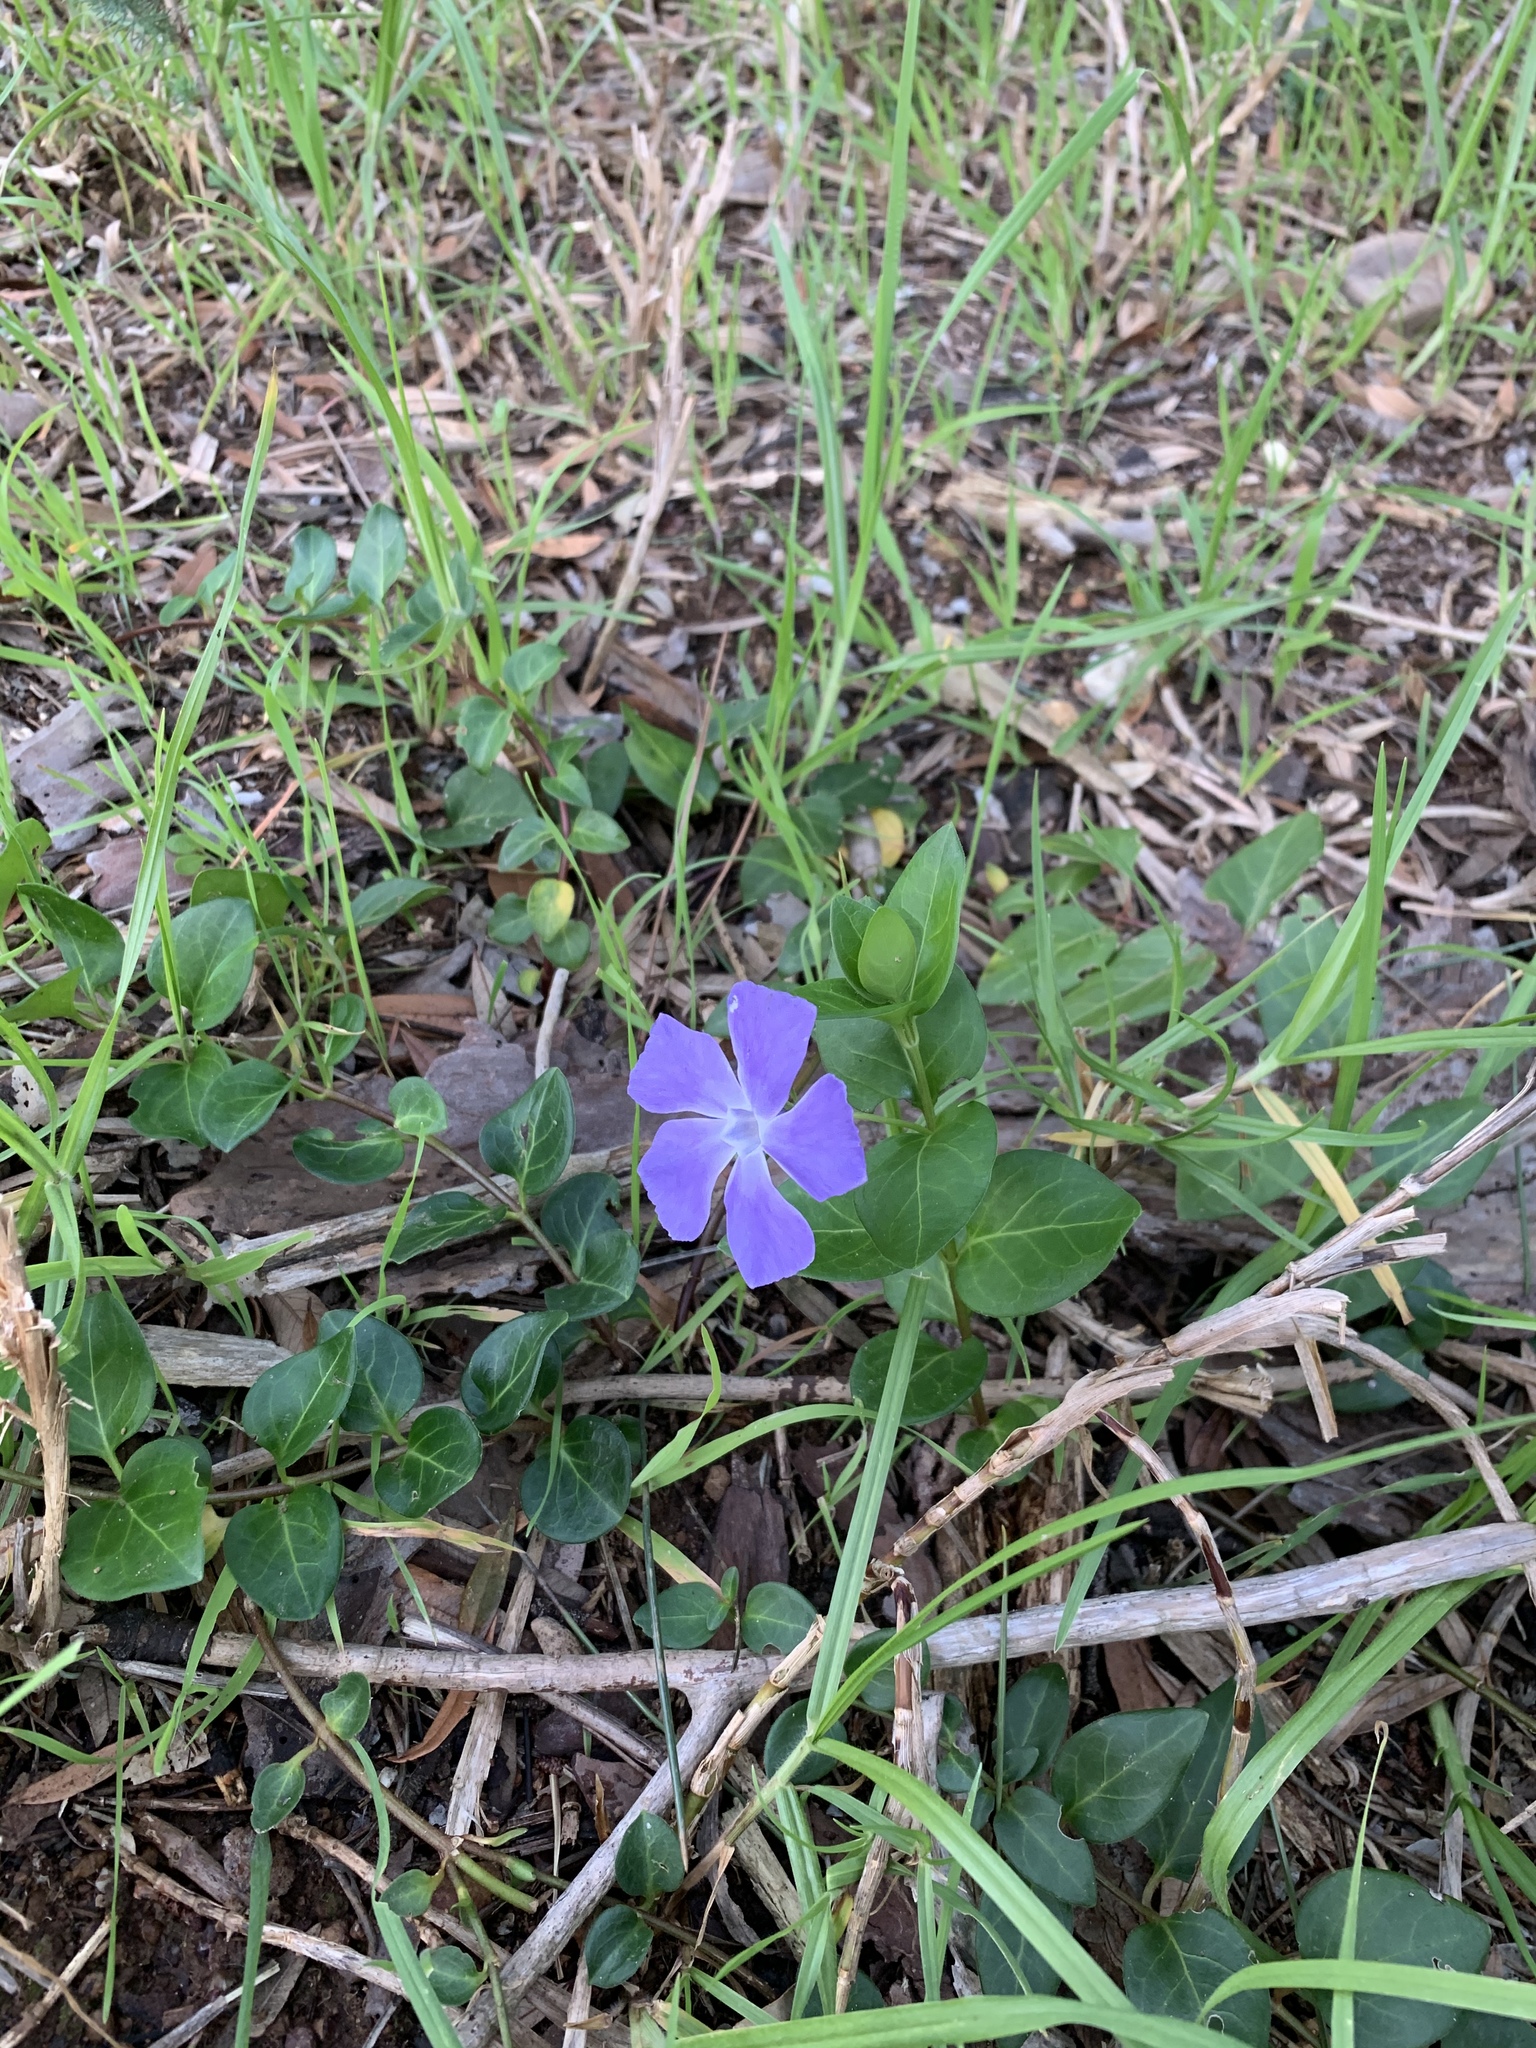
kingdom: Plantae
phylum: Tracheophyta
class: Magnoliopsida
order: Gentianales
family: Apocynaceae
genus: Vinca
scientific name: Vinca major
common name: Greater periwinkle
